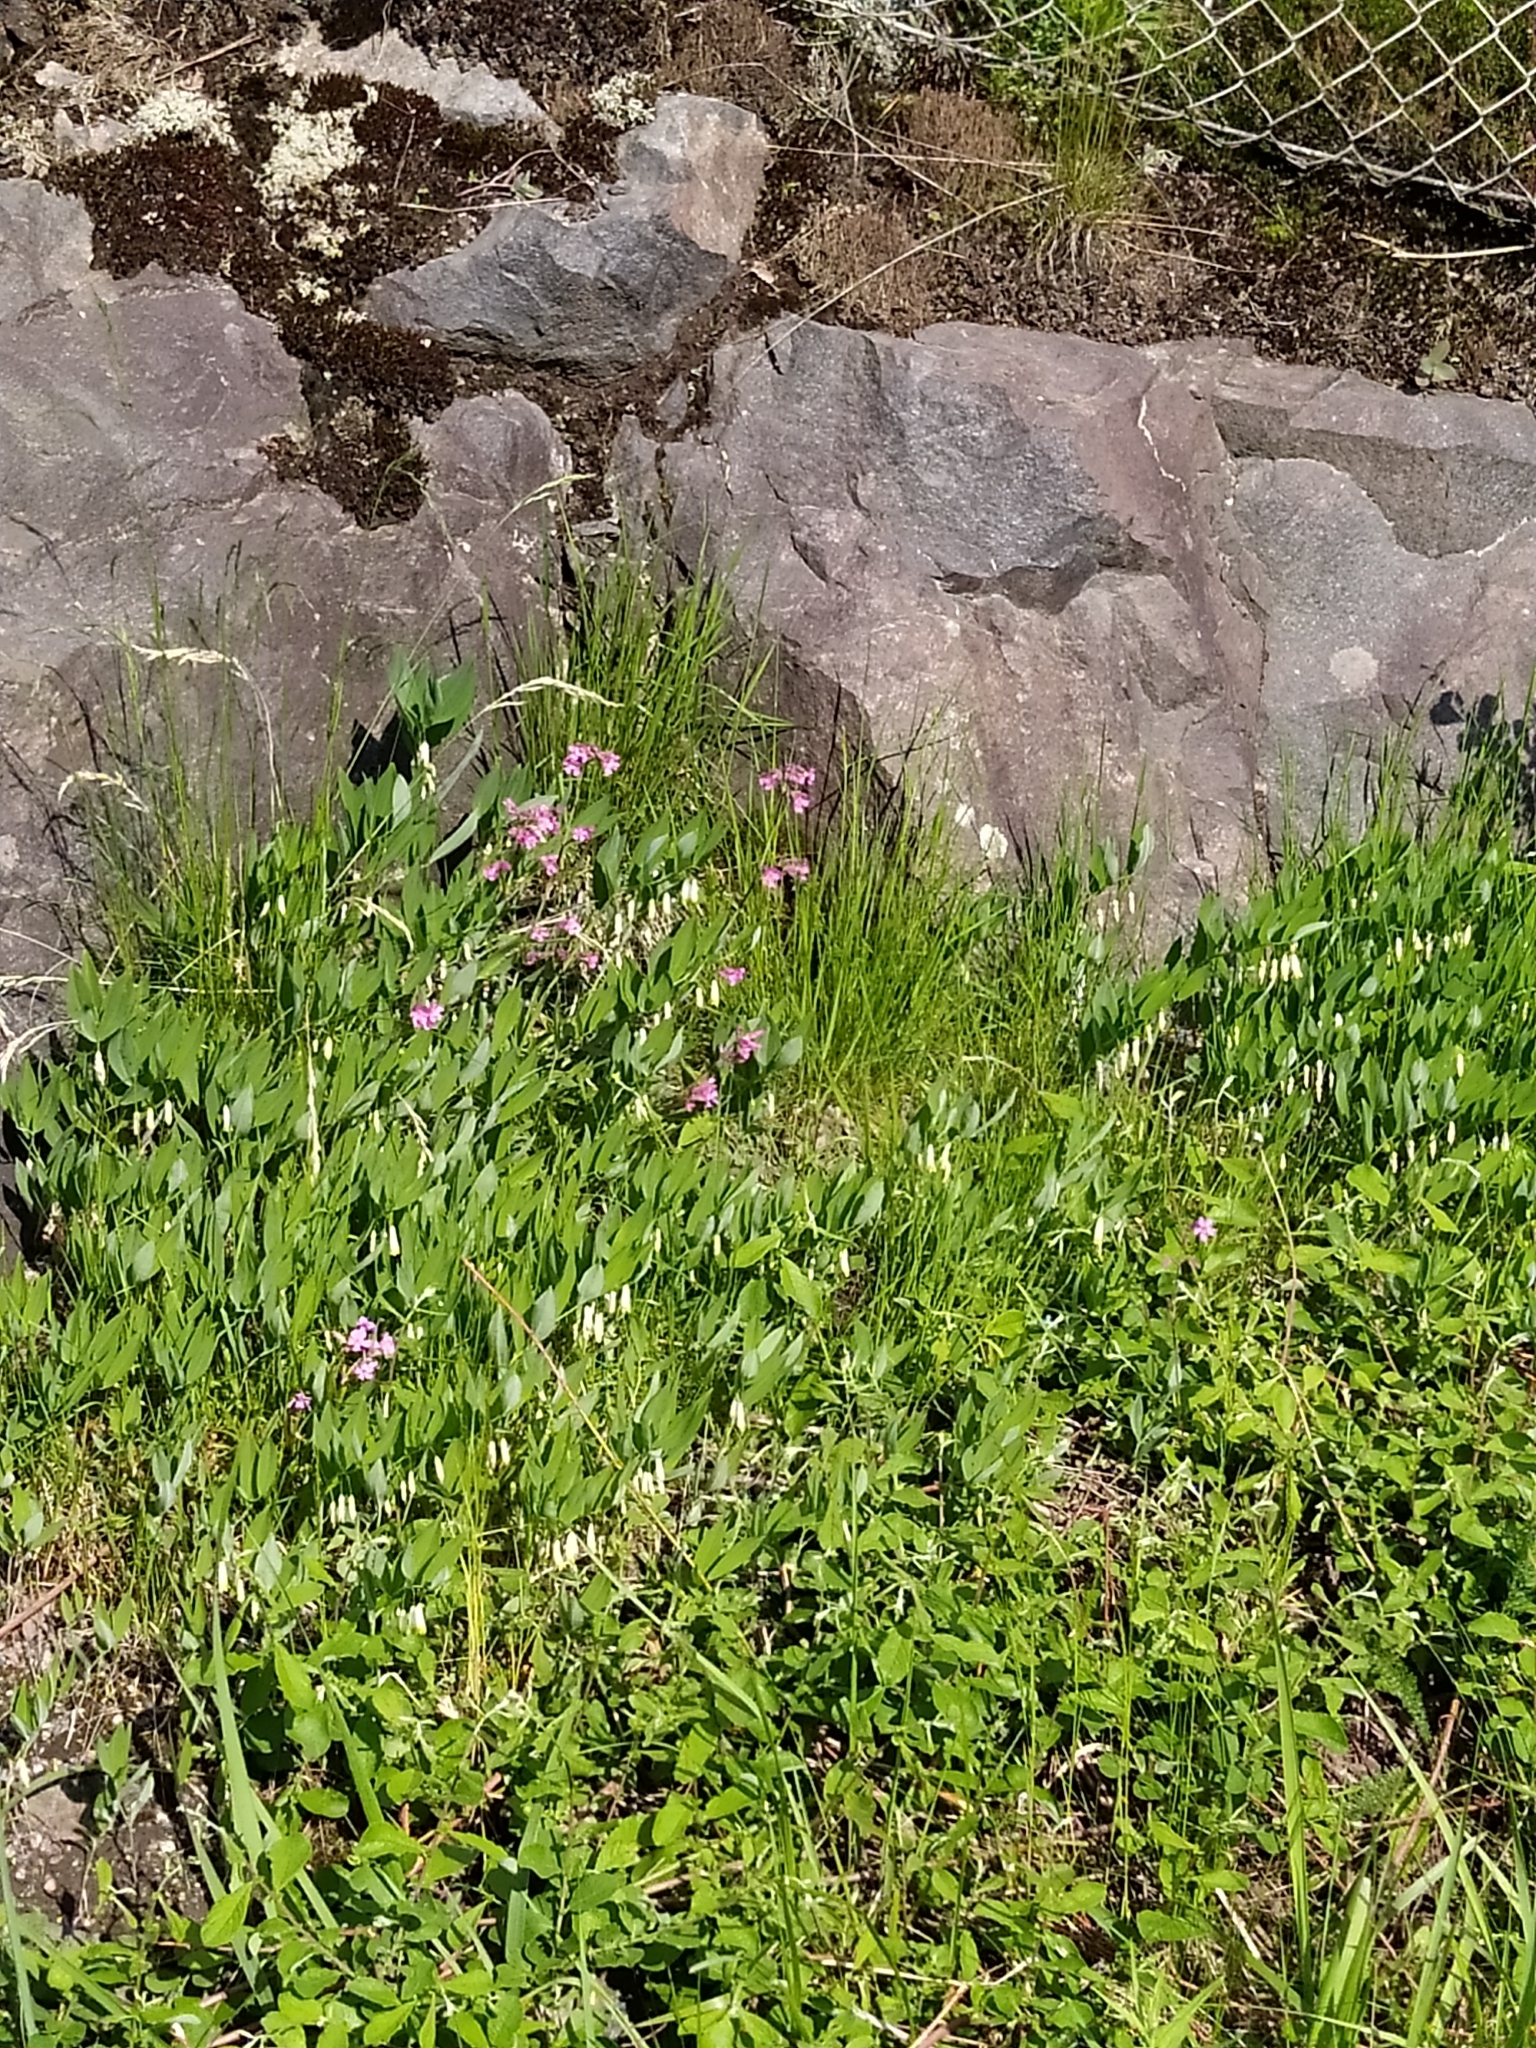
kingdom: Plantae
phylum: Tracheophyta
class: Liliopsida
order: Asparagales
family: Asparagaceae
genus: Polygonatum
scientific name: Polygonatum odoratum
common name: Angular solomon's-seal
